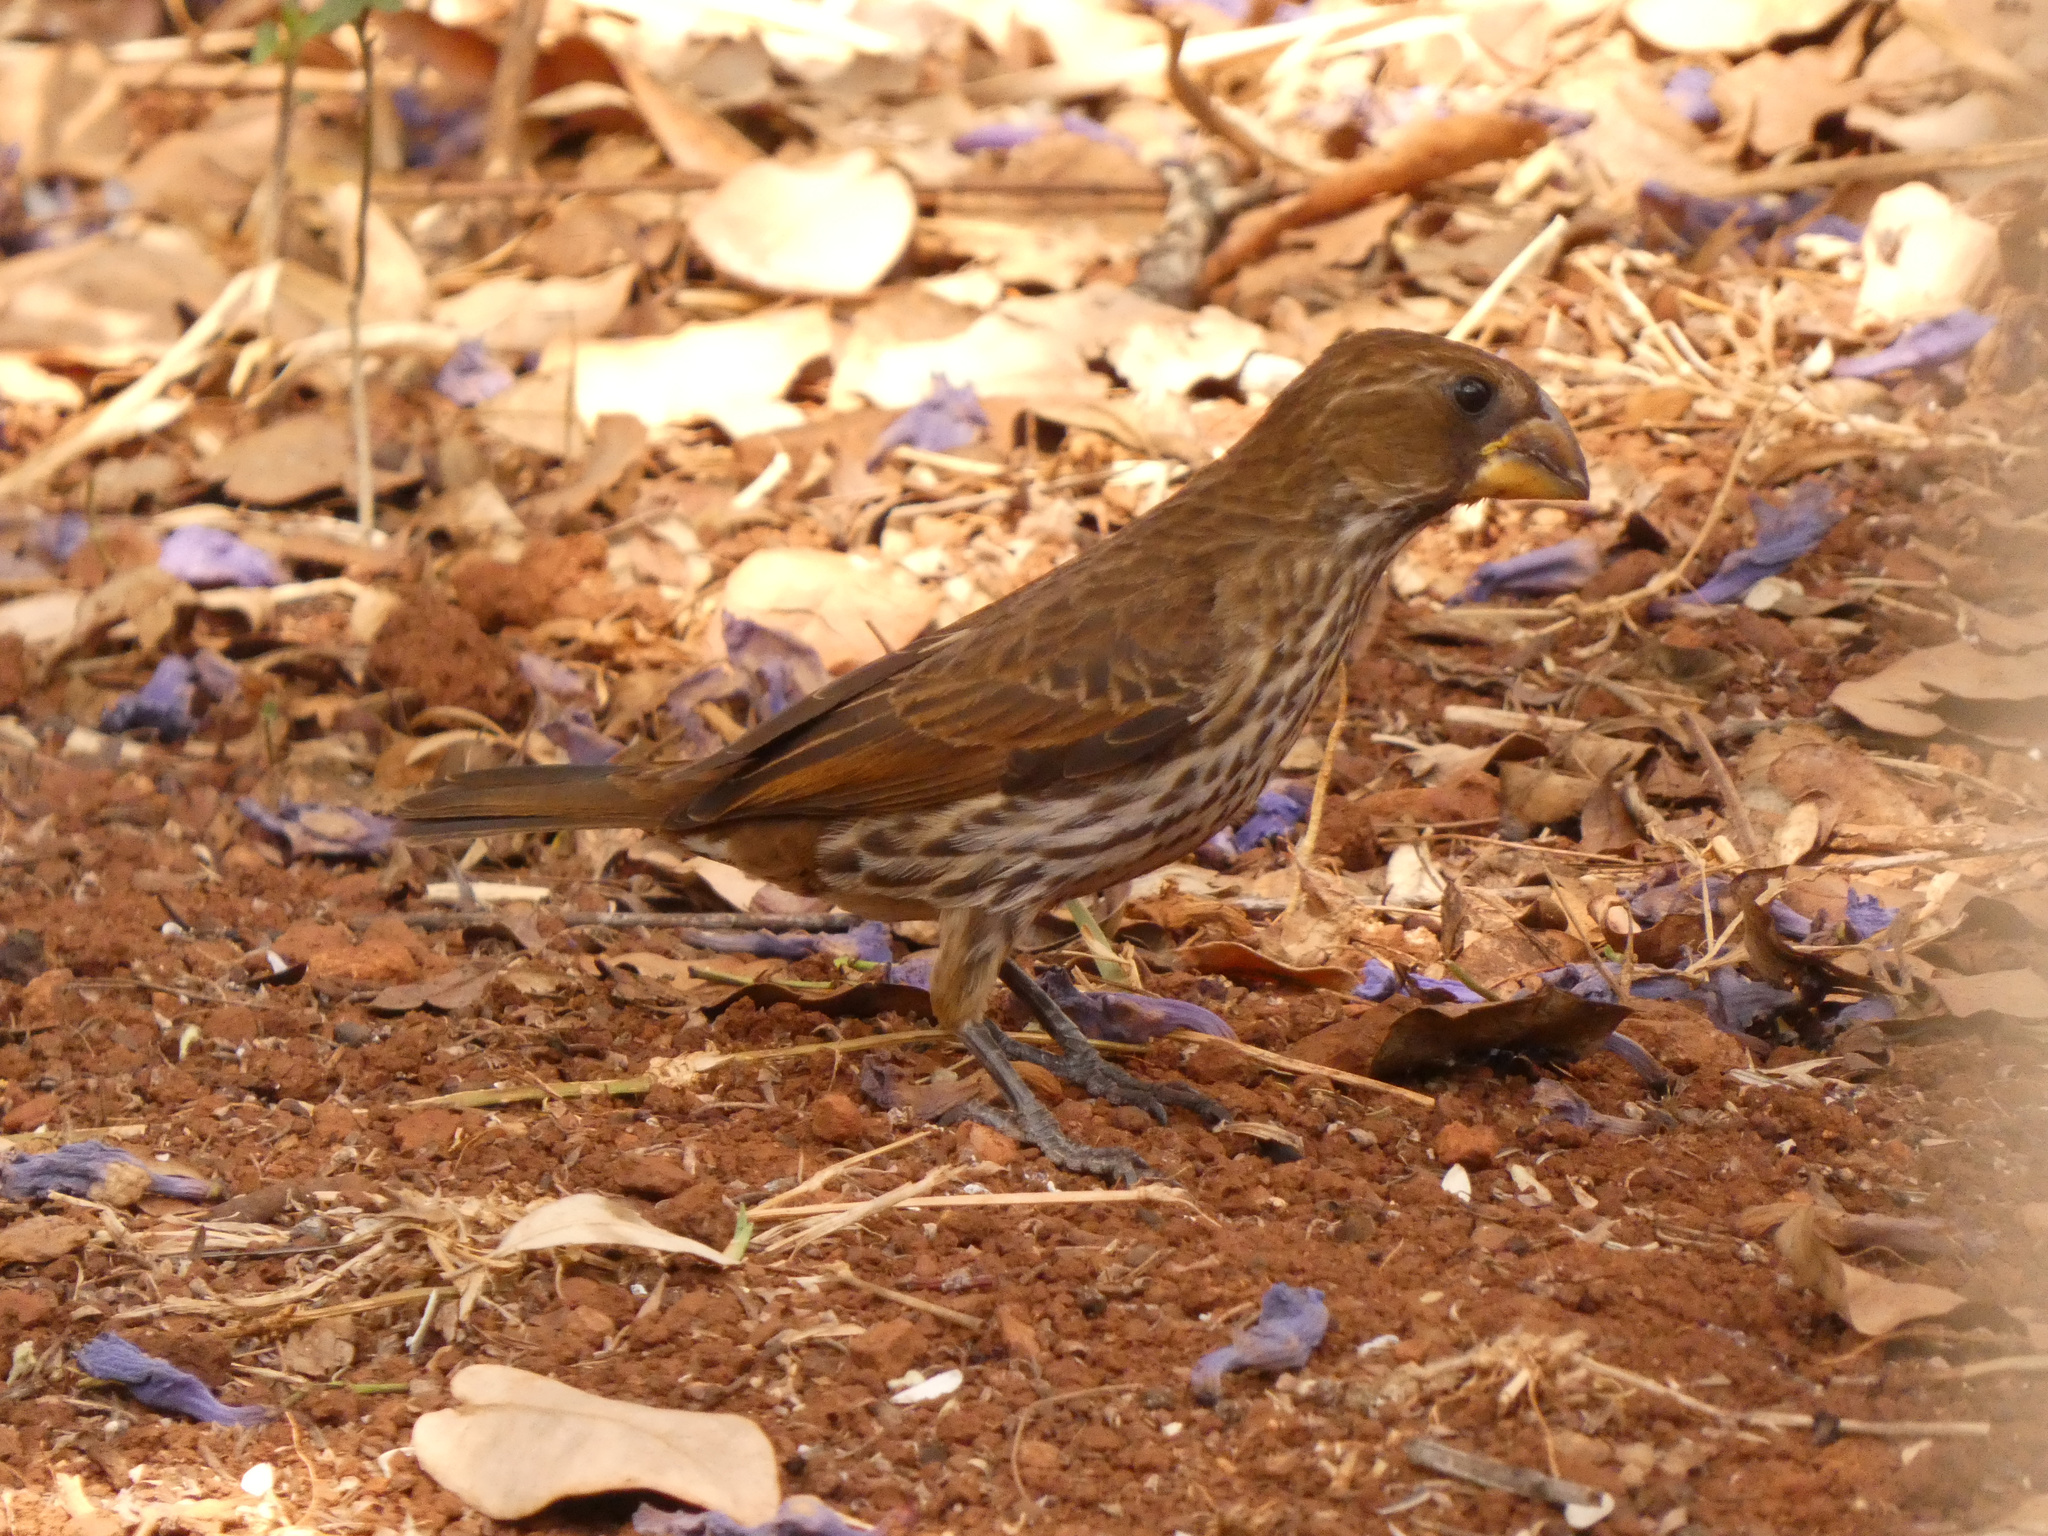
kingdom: Animalia
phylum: Chordata
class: Aves
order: Passeriformes
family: Ploceidae
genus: Amblyospiza
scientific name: Amblyospiza albifrons
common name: Thick-billed weaver
